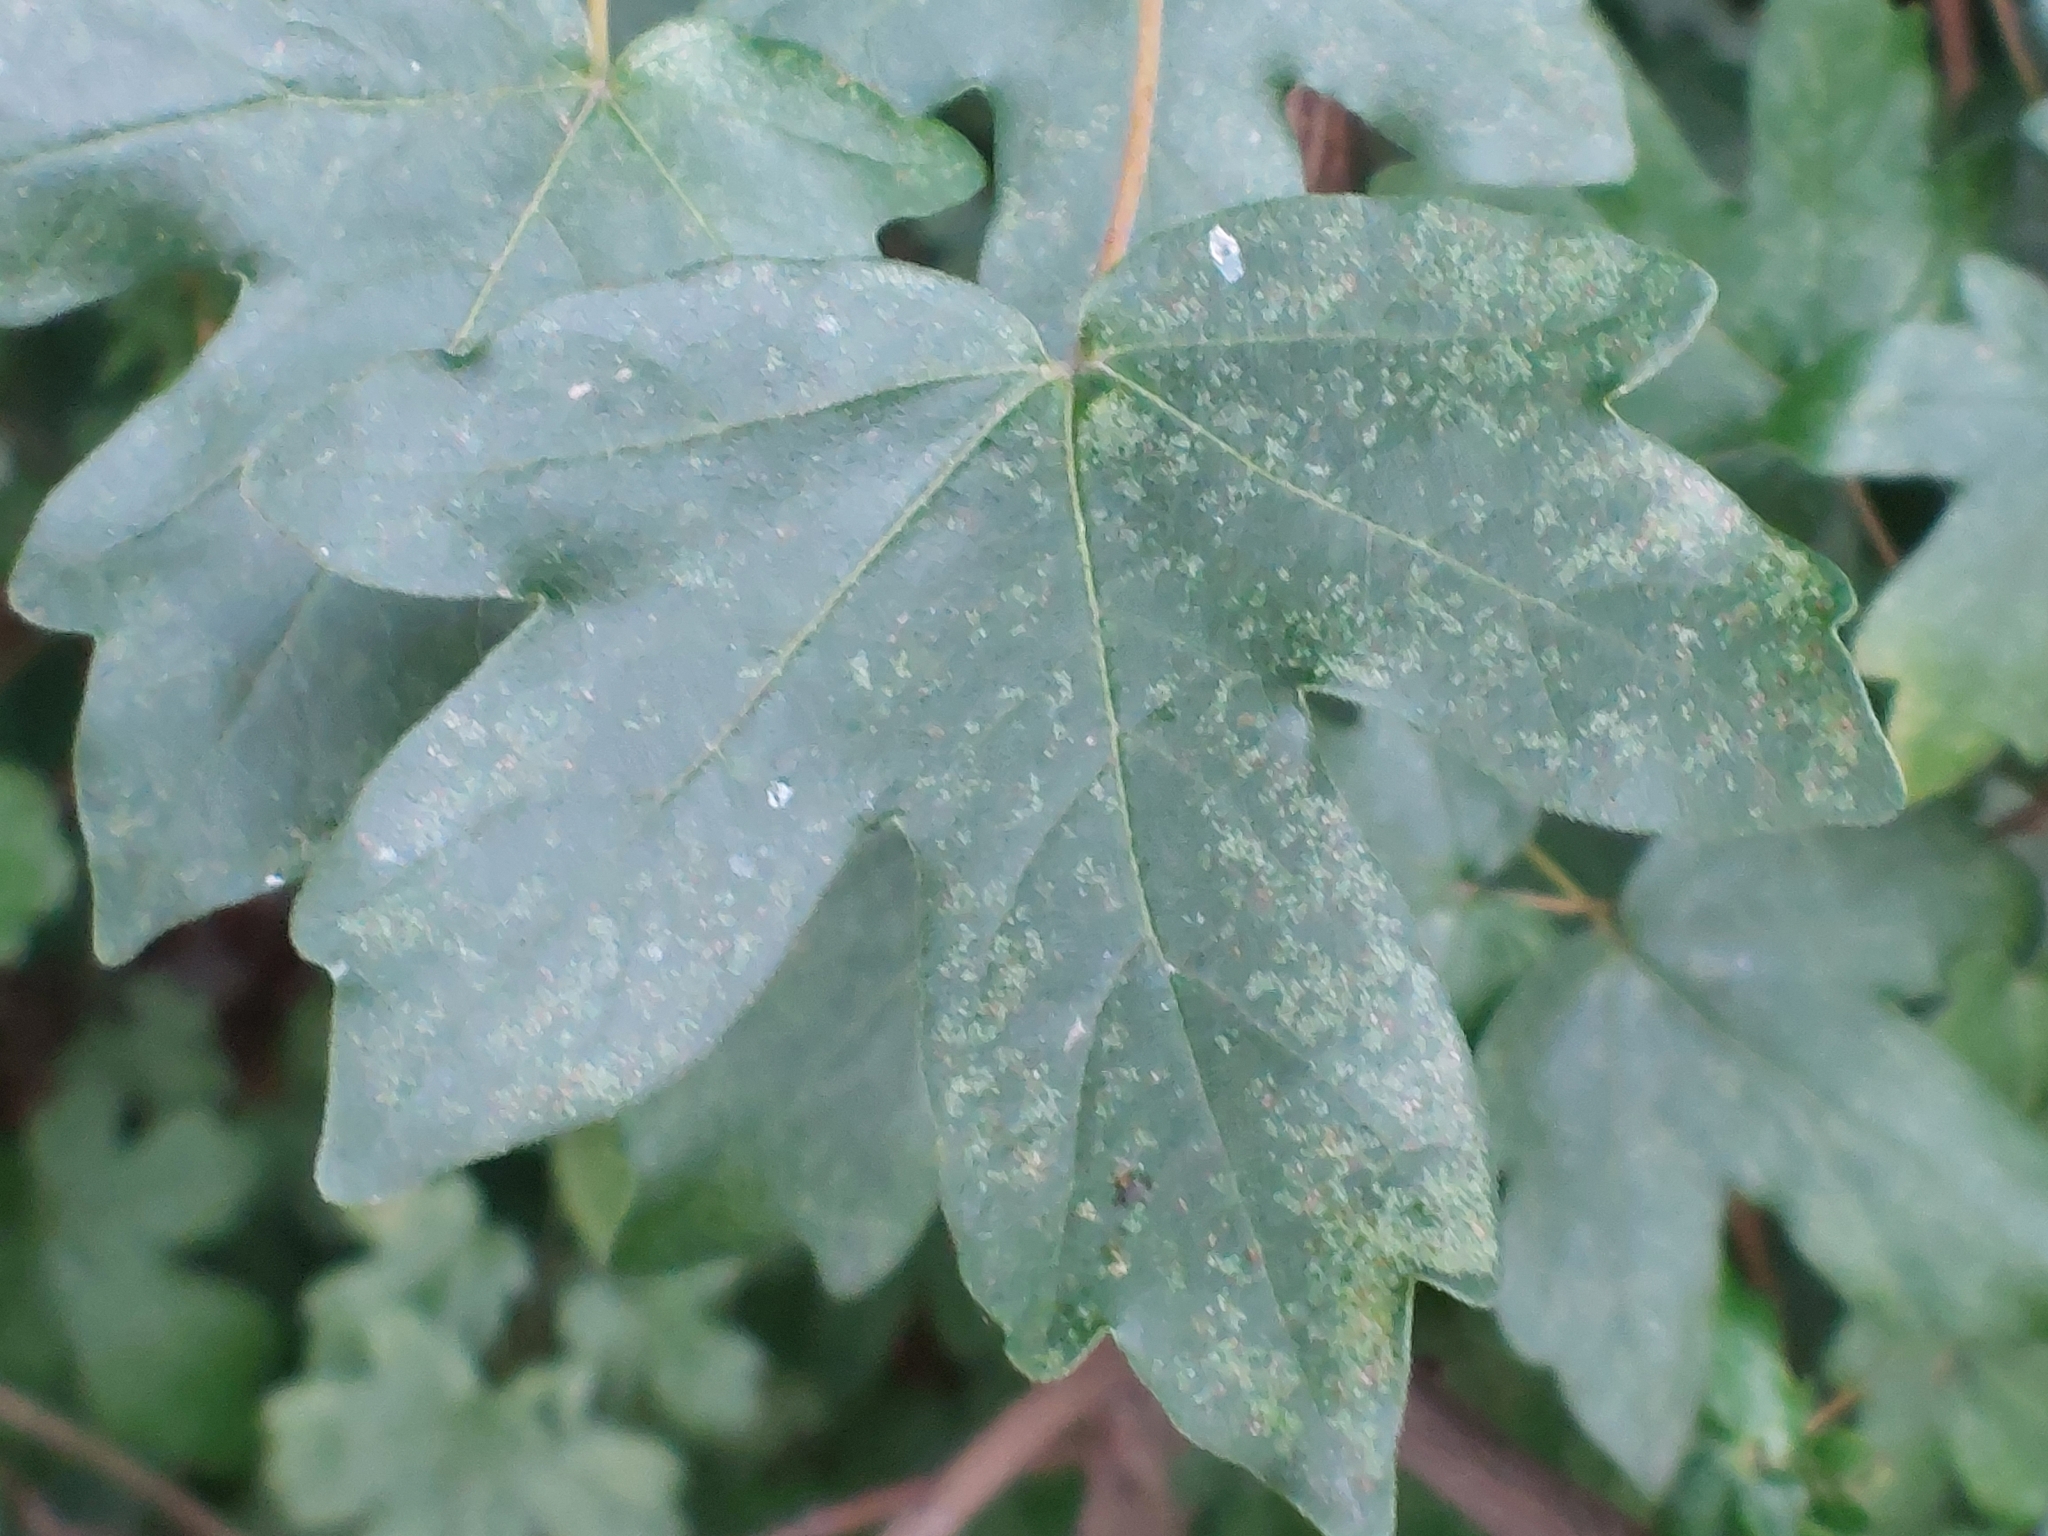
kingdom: Plantae
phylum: Tracheophyta
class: Magnoliopsida
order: Sapindales
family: Sapindaceae
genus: Acer
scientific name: Acer campestre
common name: Field maple
